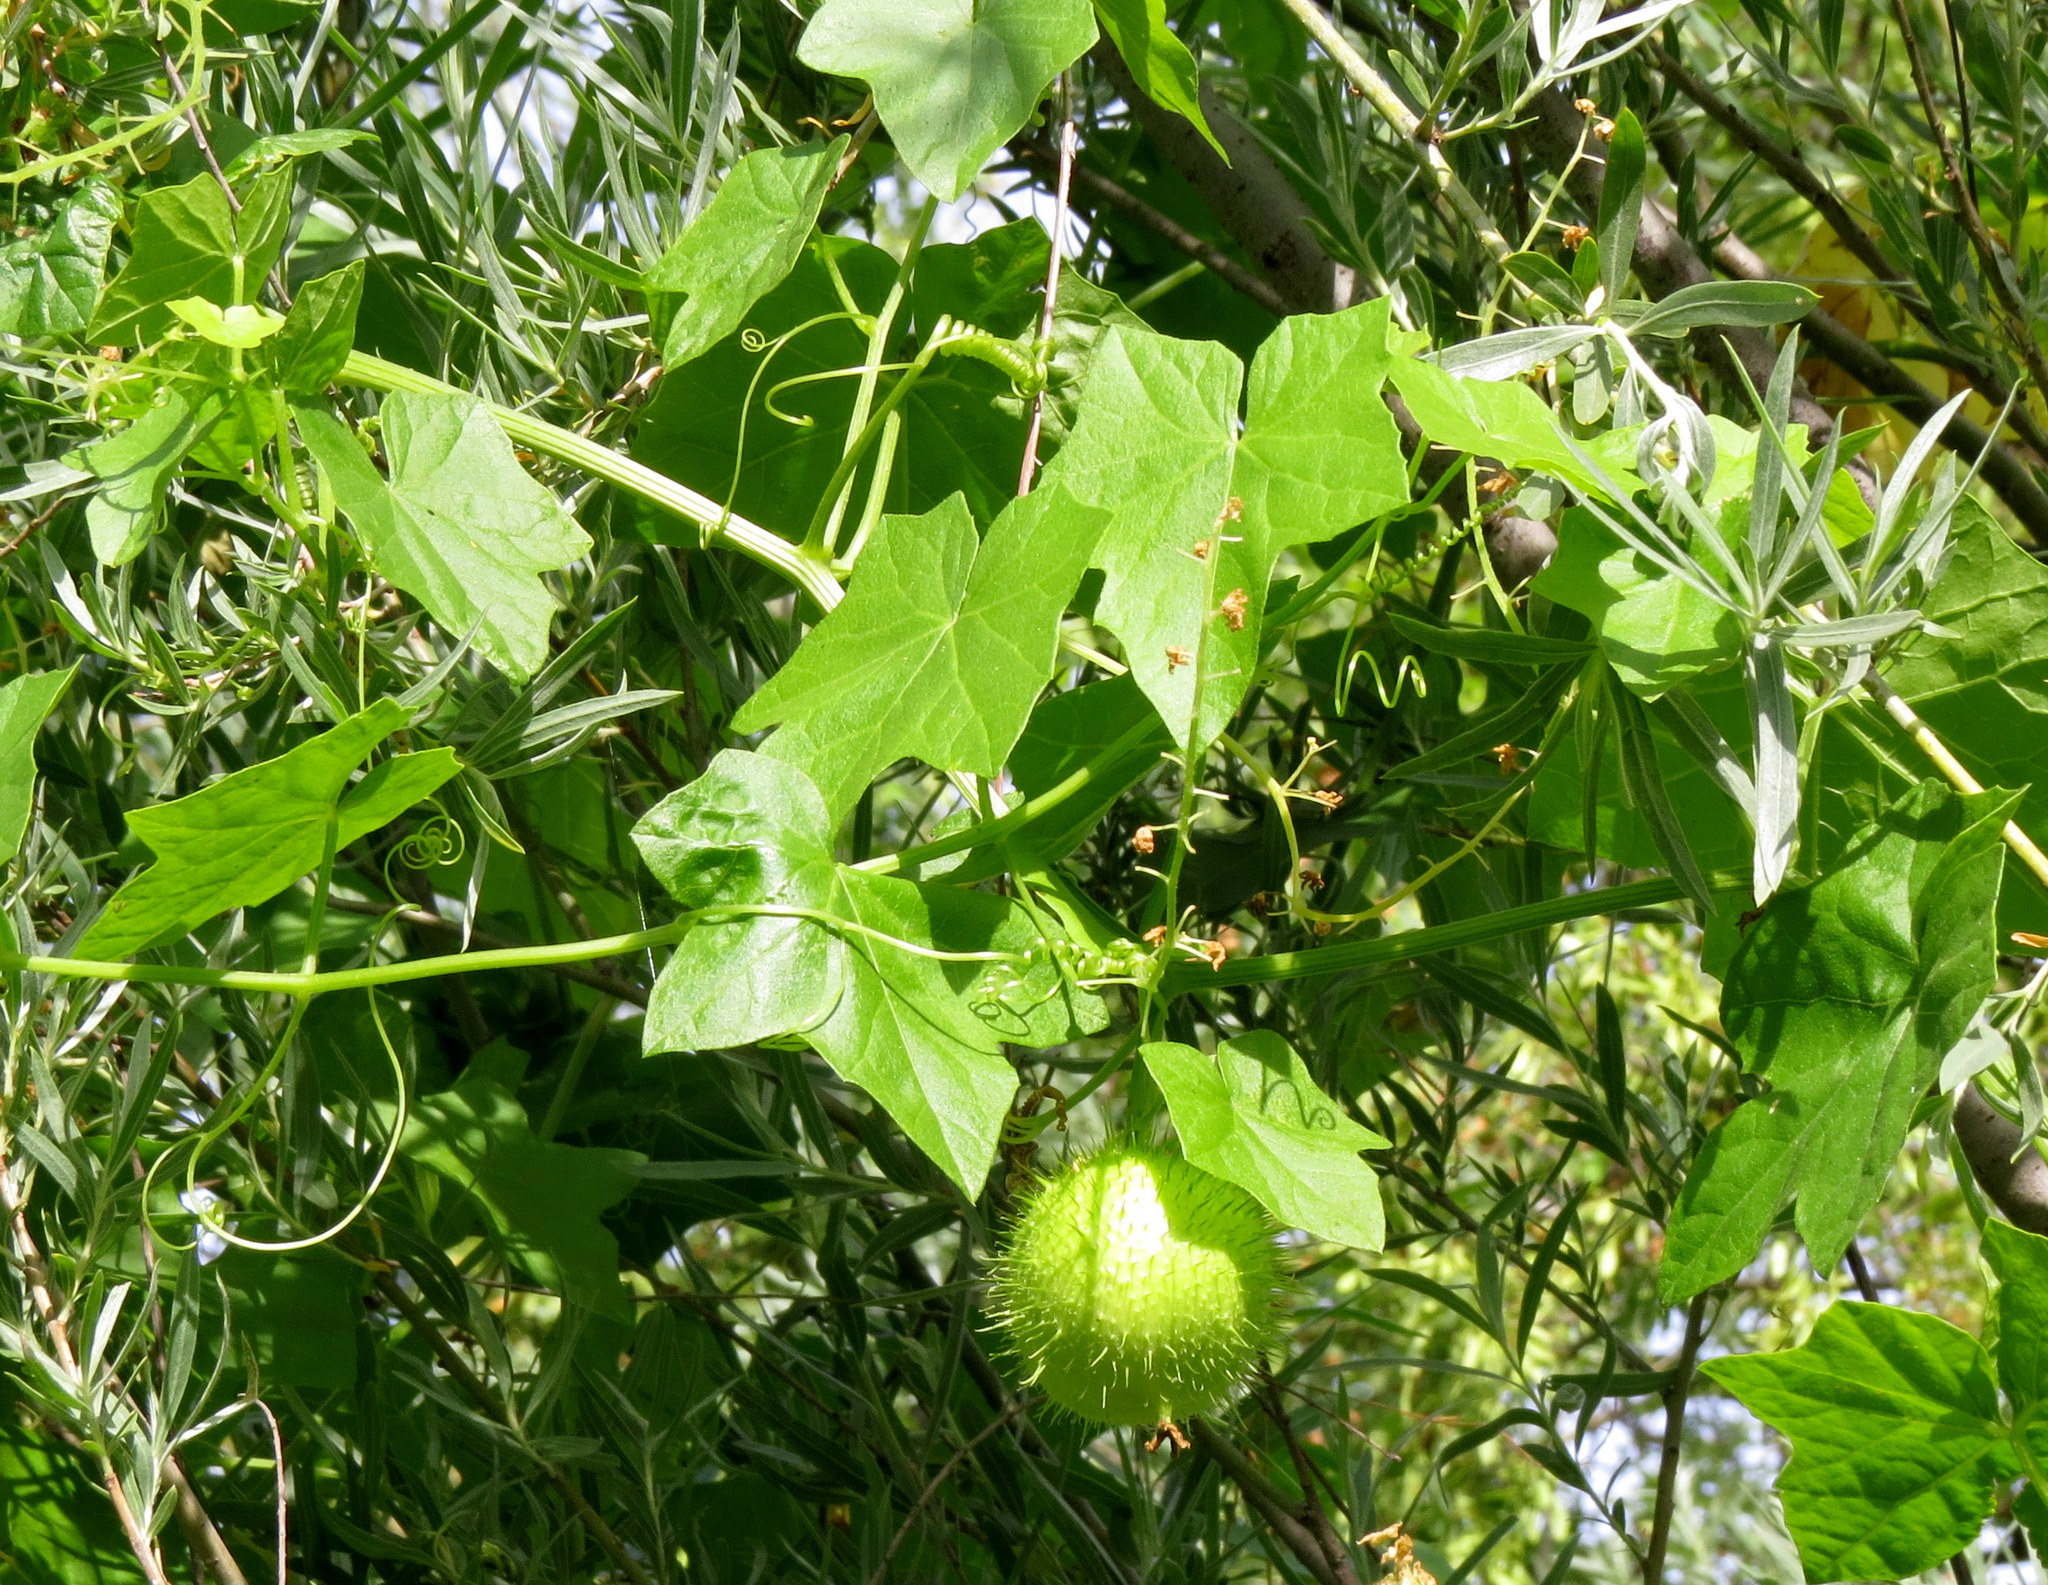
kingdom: Plantae
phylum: Tracheophyta
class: Magnoliopsida
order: Cucurbitales
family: Cucurbitaceae
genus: Marah
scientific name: Marah fabacea
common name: California manroot
